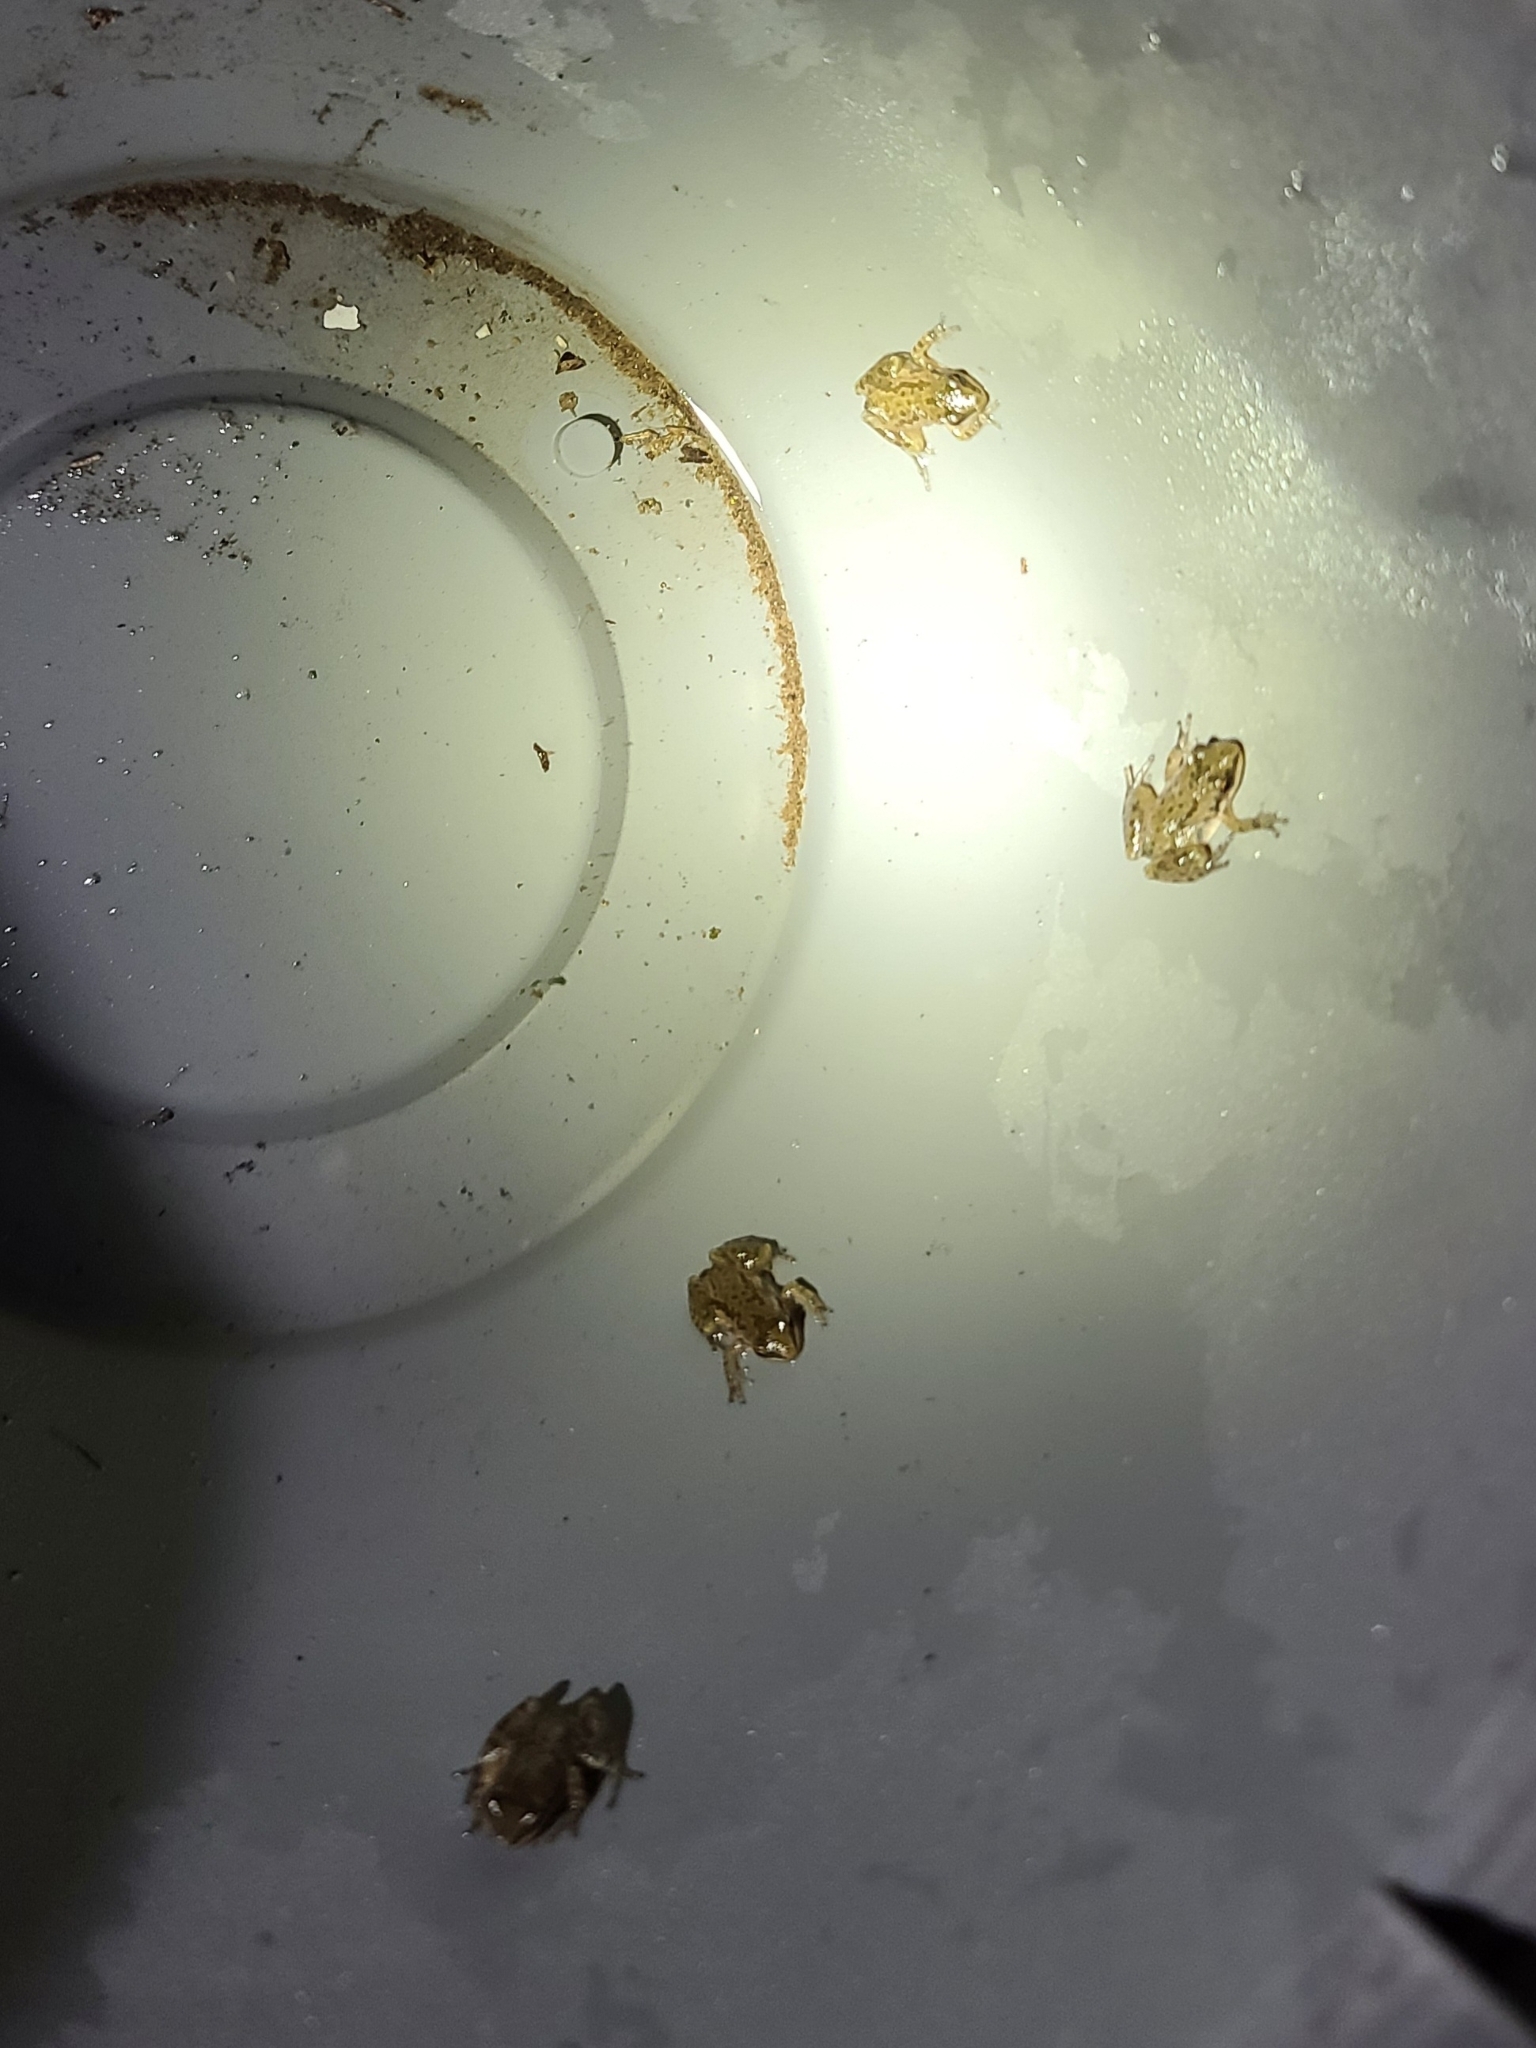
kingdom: Animalia
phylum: Chordata
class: Amphibia
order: Anura
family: Hylidae
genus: Pseudacris
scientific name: Pseudacris clarkii
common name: Spotted chorus frog
